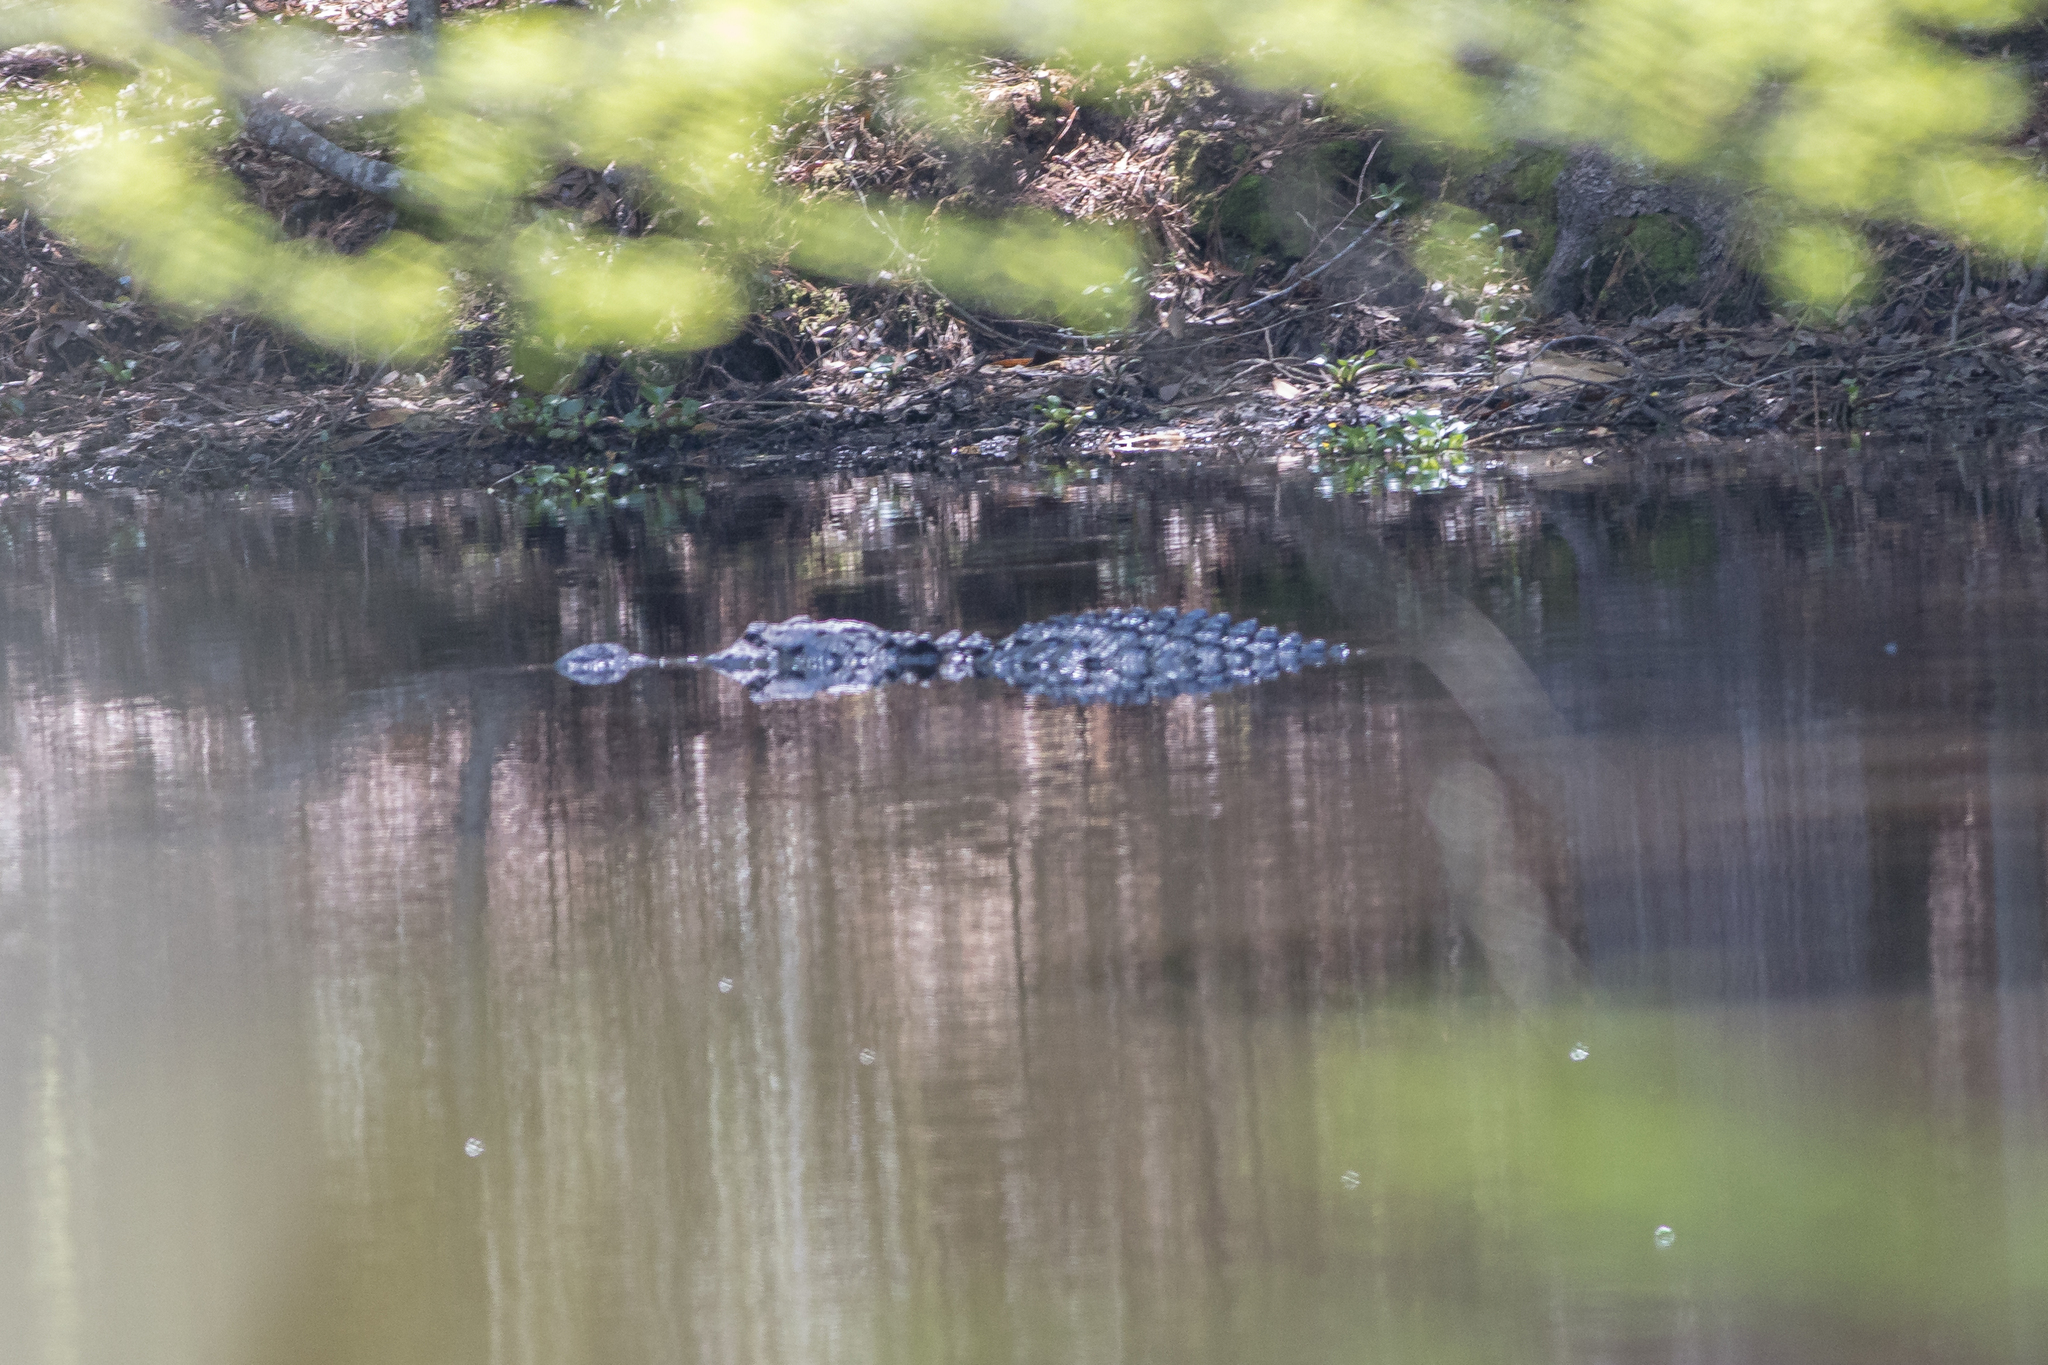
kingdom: Animalia
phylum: Chordata
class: Crocodylia
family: Alligatoridae
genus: Alligator
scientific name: Alligator mississippiensis
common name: American alligator
